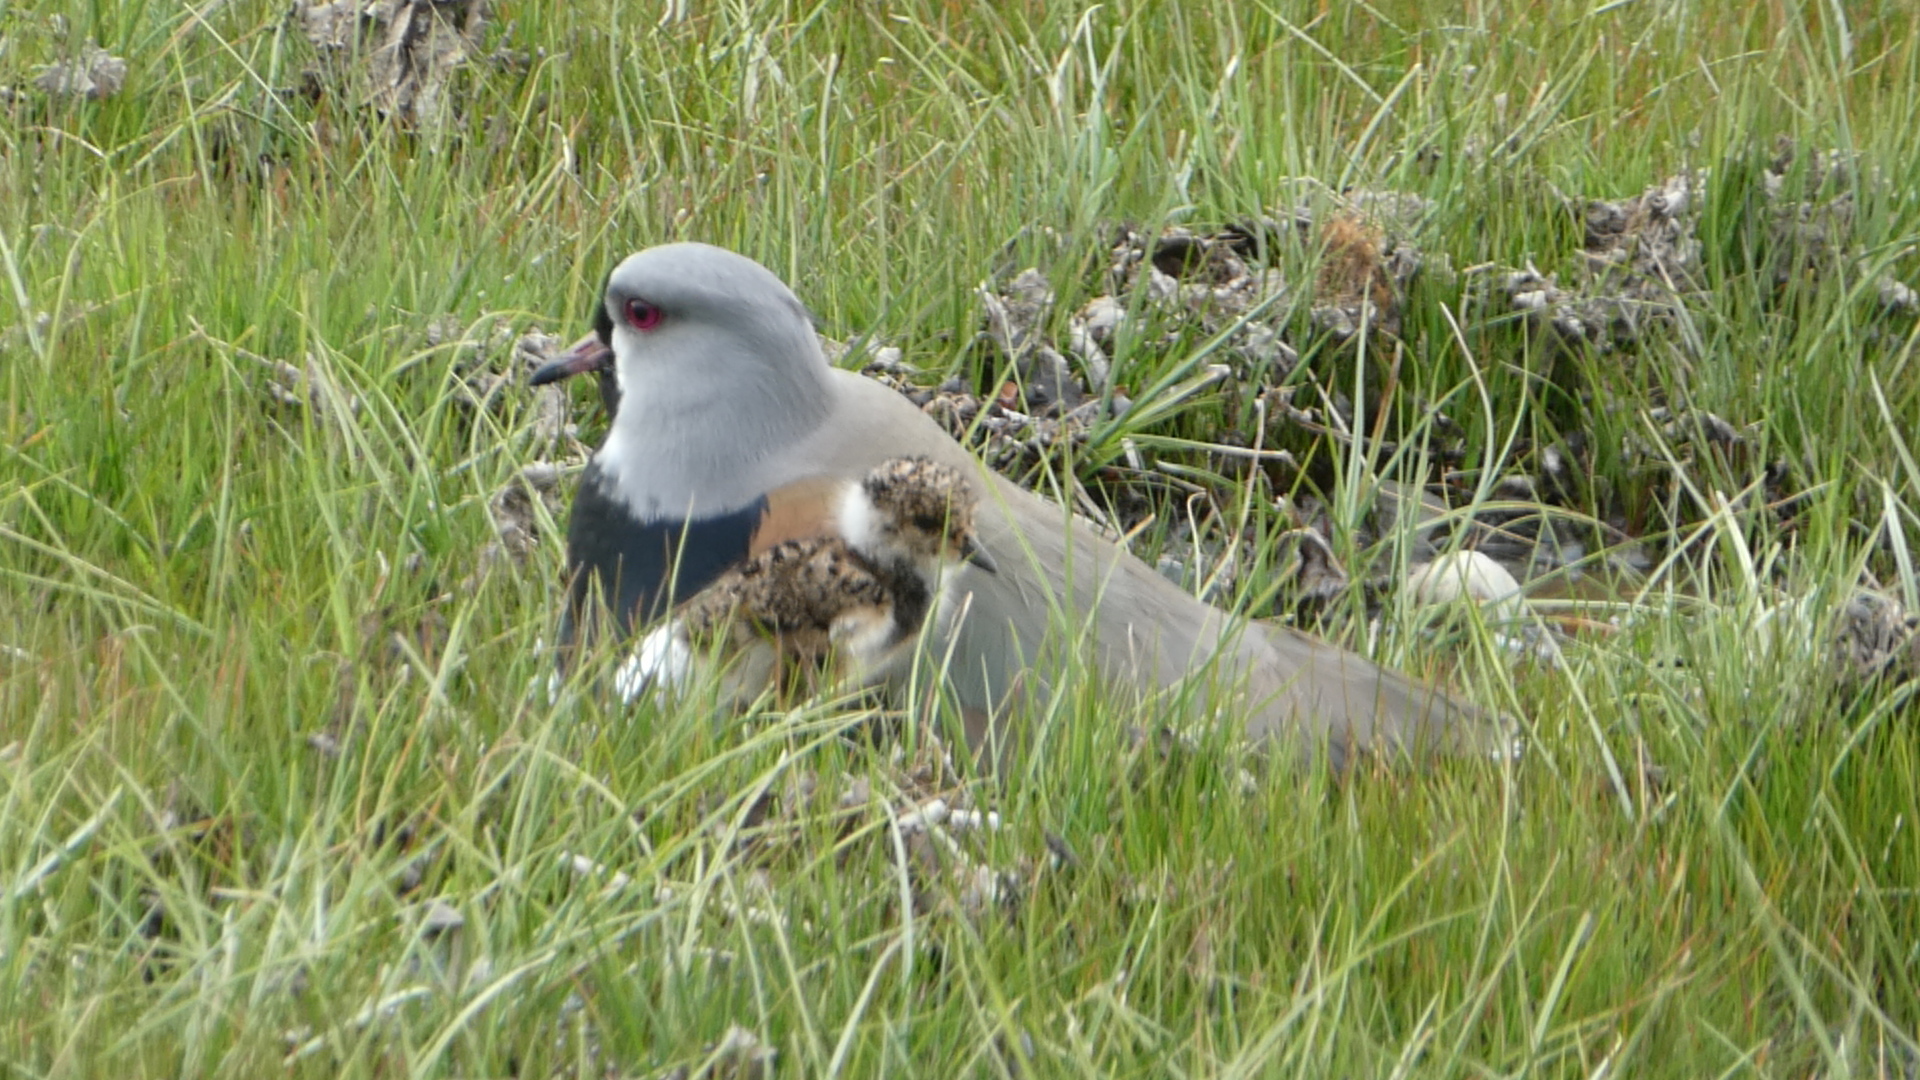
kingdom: Animalia
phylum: Chordata
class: Aves
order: Charadriiformes
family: Charadriidae
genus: Vanellus
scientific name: Vanellus chilensis
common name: Southern lapwing
